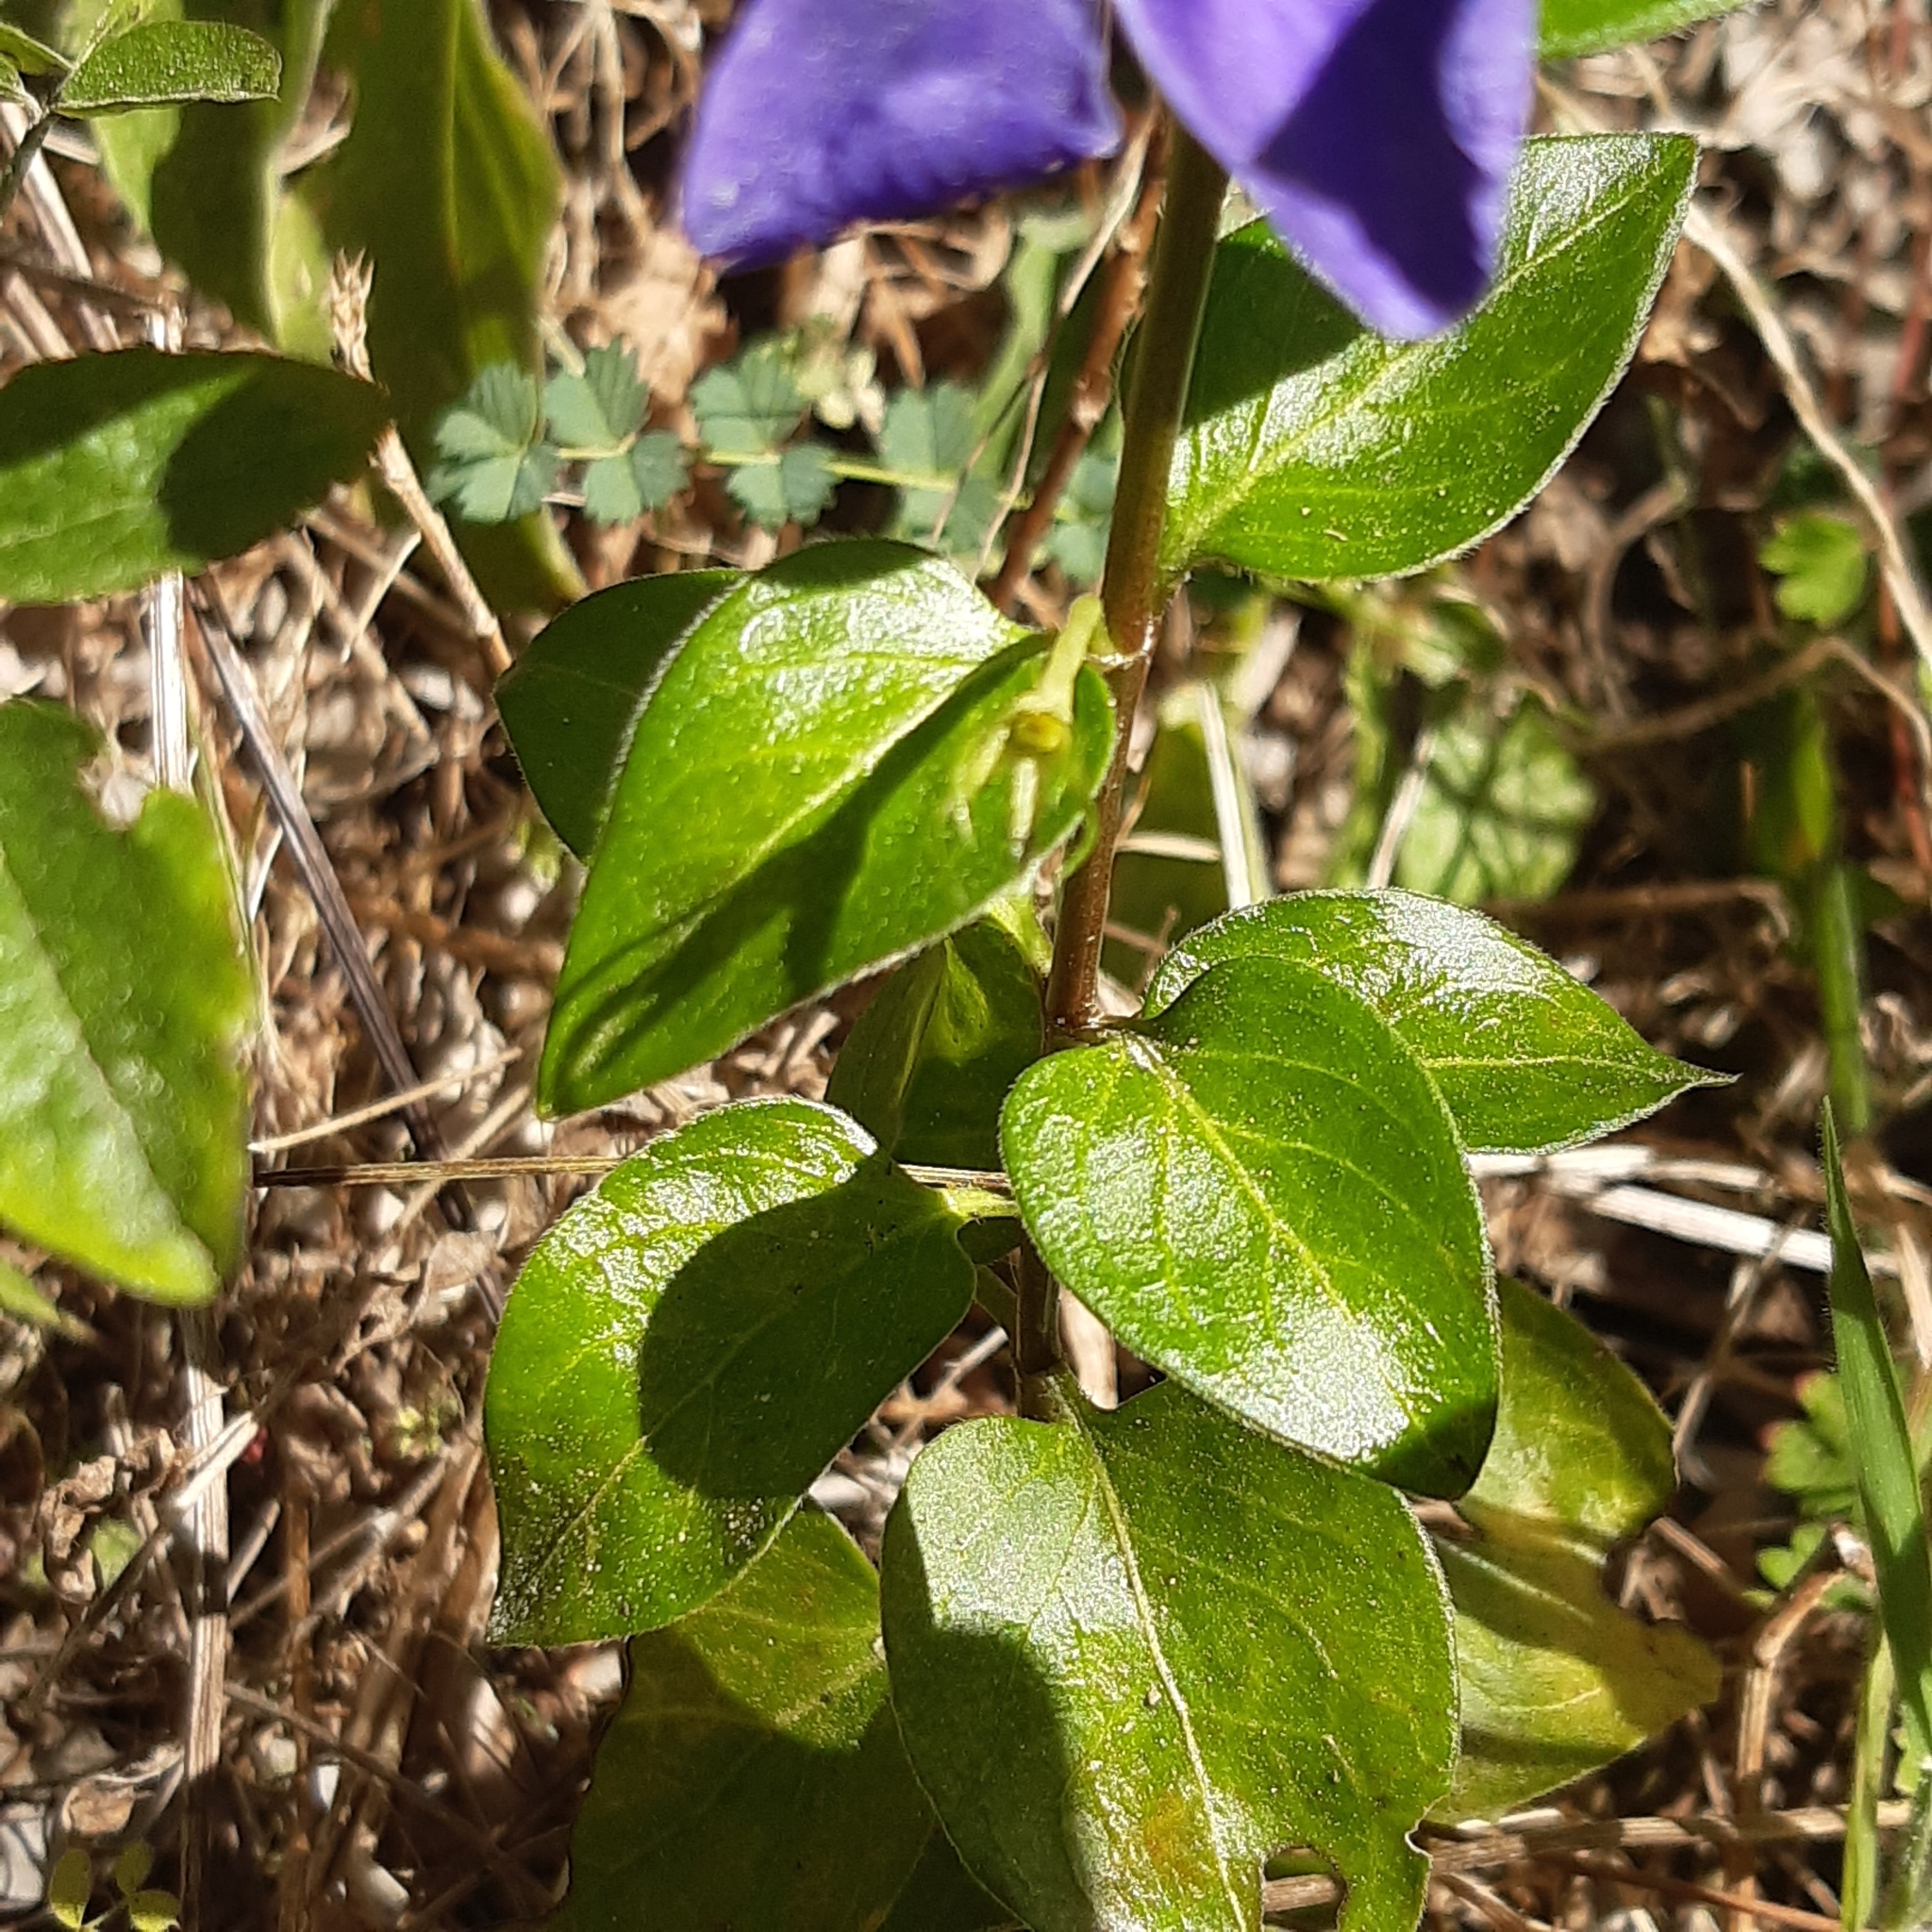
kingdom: Plantae
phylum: Tracheophyta
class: Magnoliopsida
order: Gentianales
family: Apocynaceae
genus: Vinca
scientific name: Vinca major
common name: Greater periwinkle
